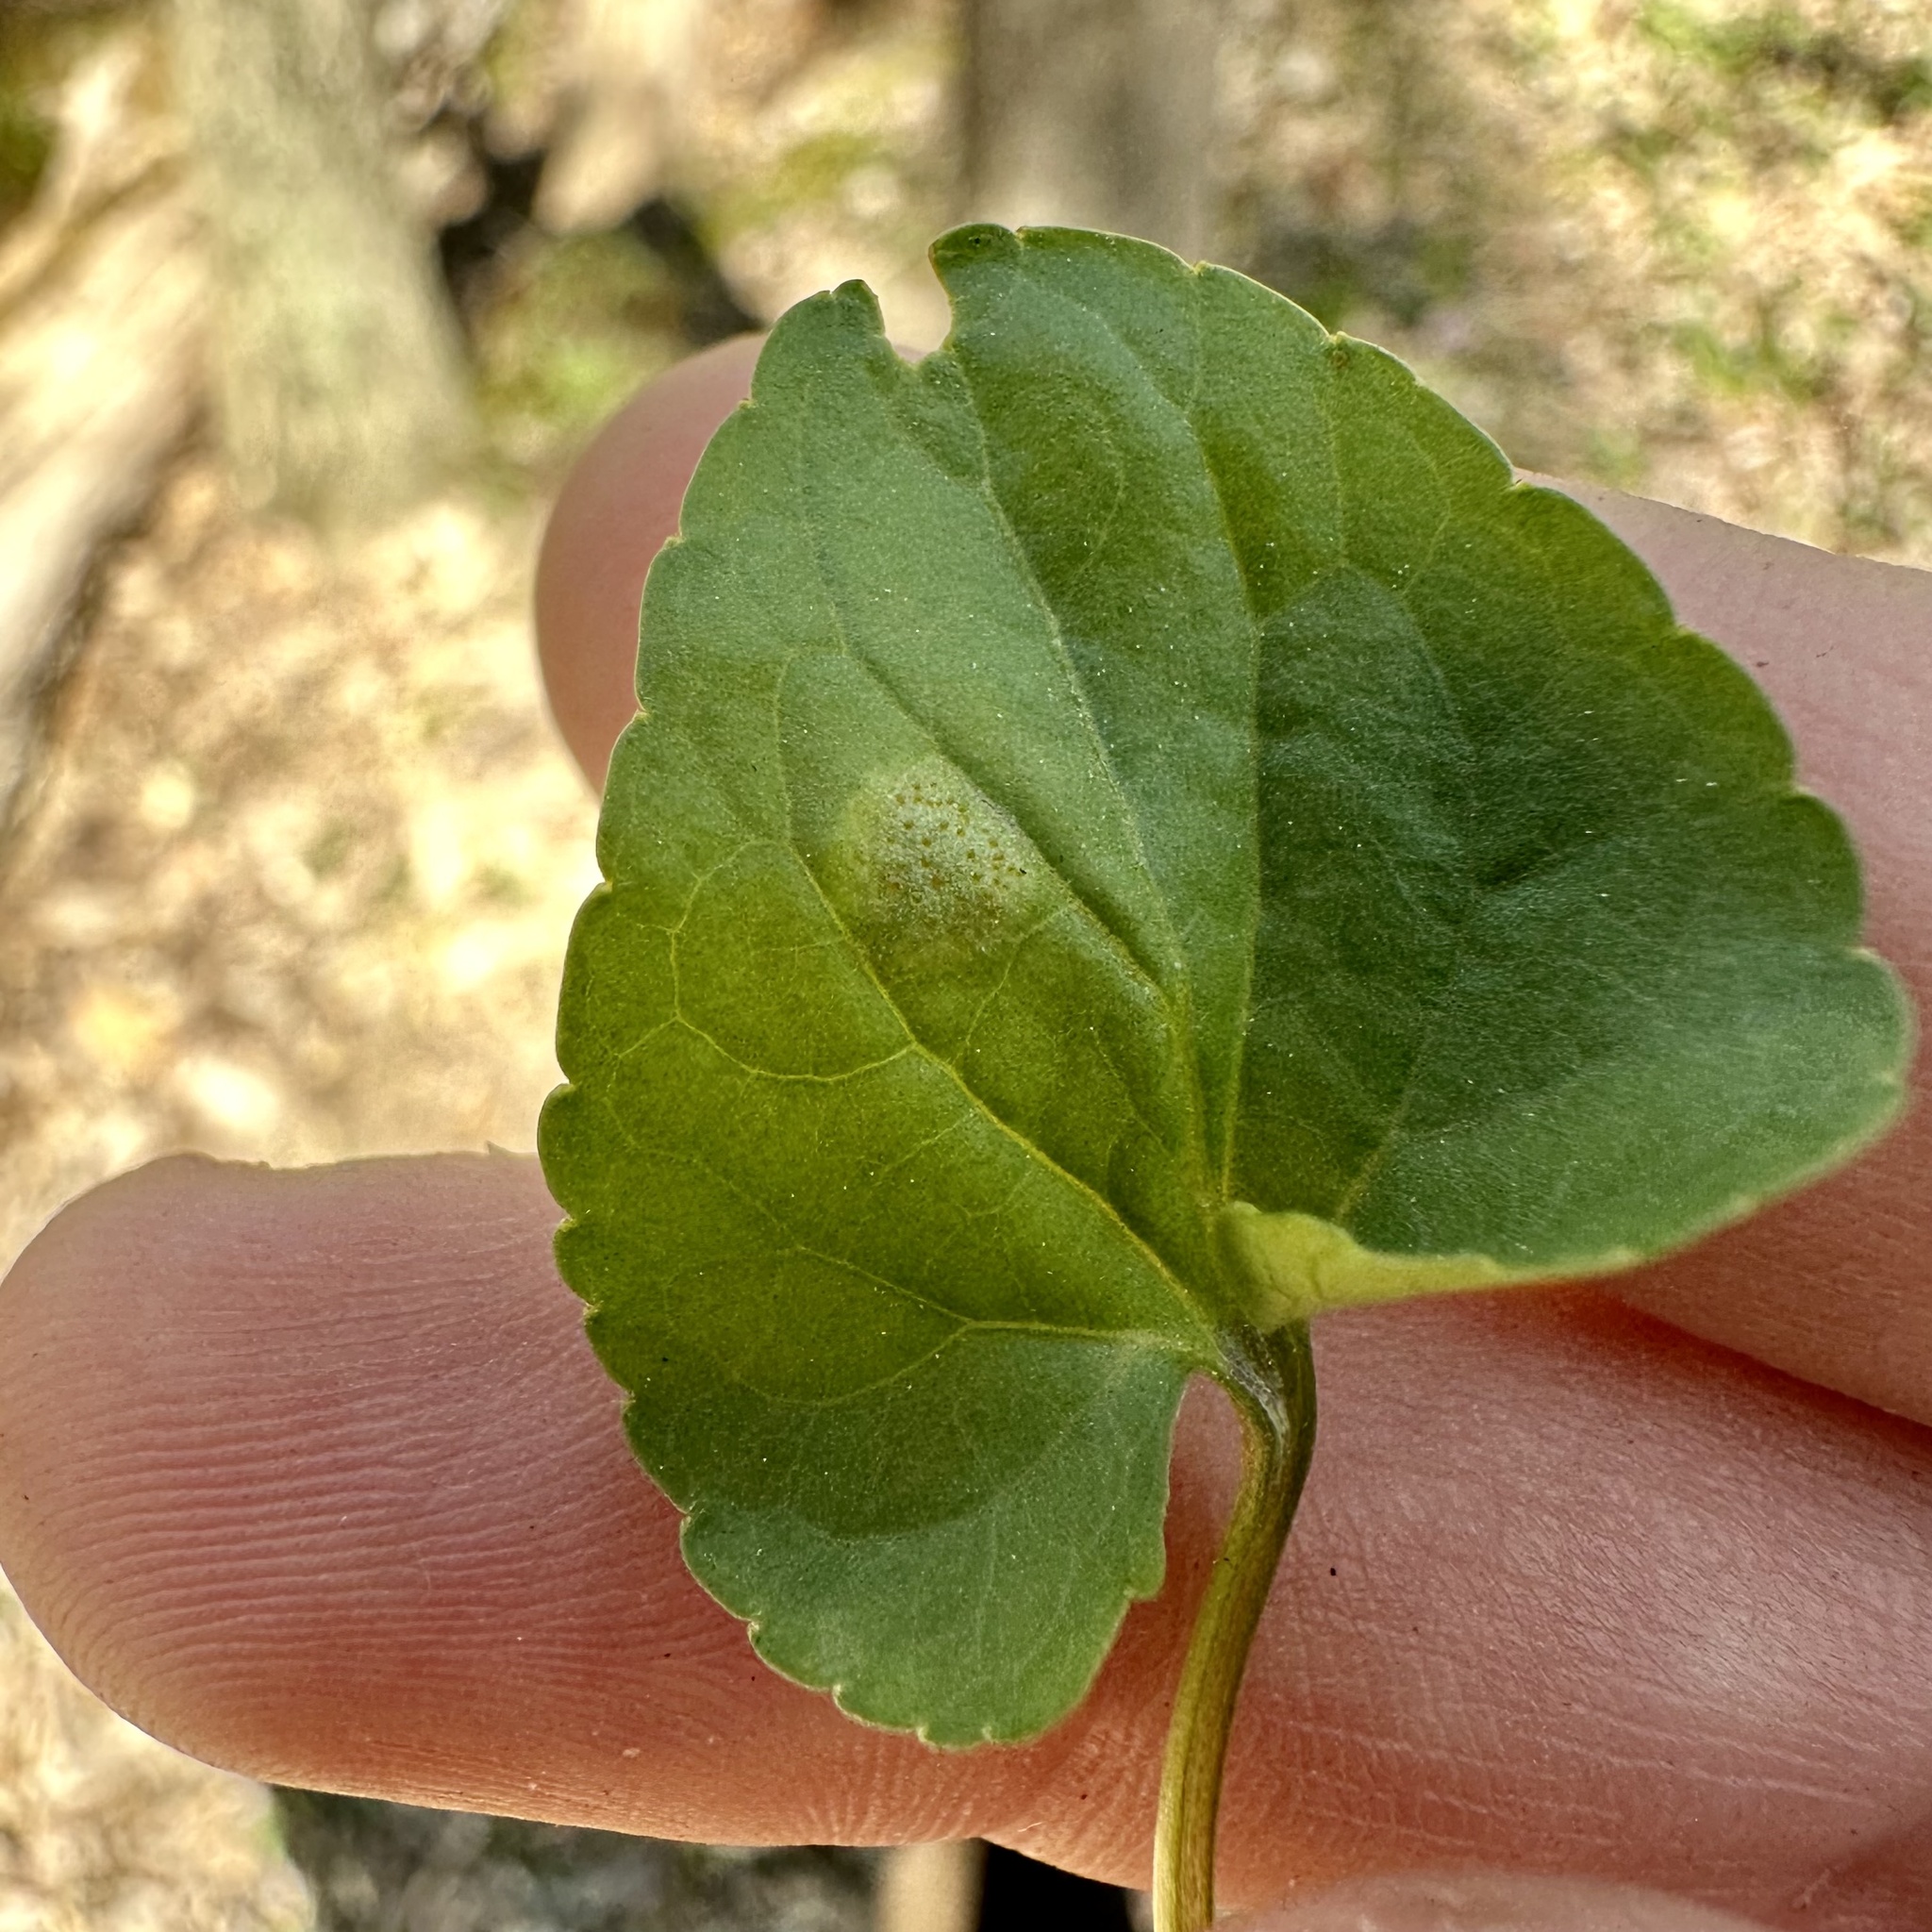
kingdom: Fungi
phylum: Basidiomycota
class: Pucciniomycetes
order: Pucciniales
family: Pucciniaceae
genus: Puccinia
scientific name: Puccinia violae
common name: Violet rust
